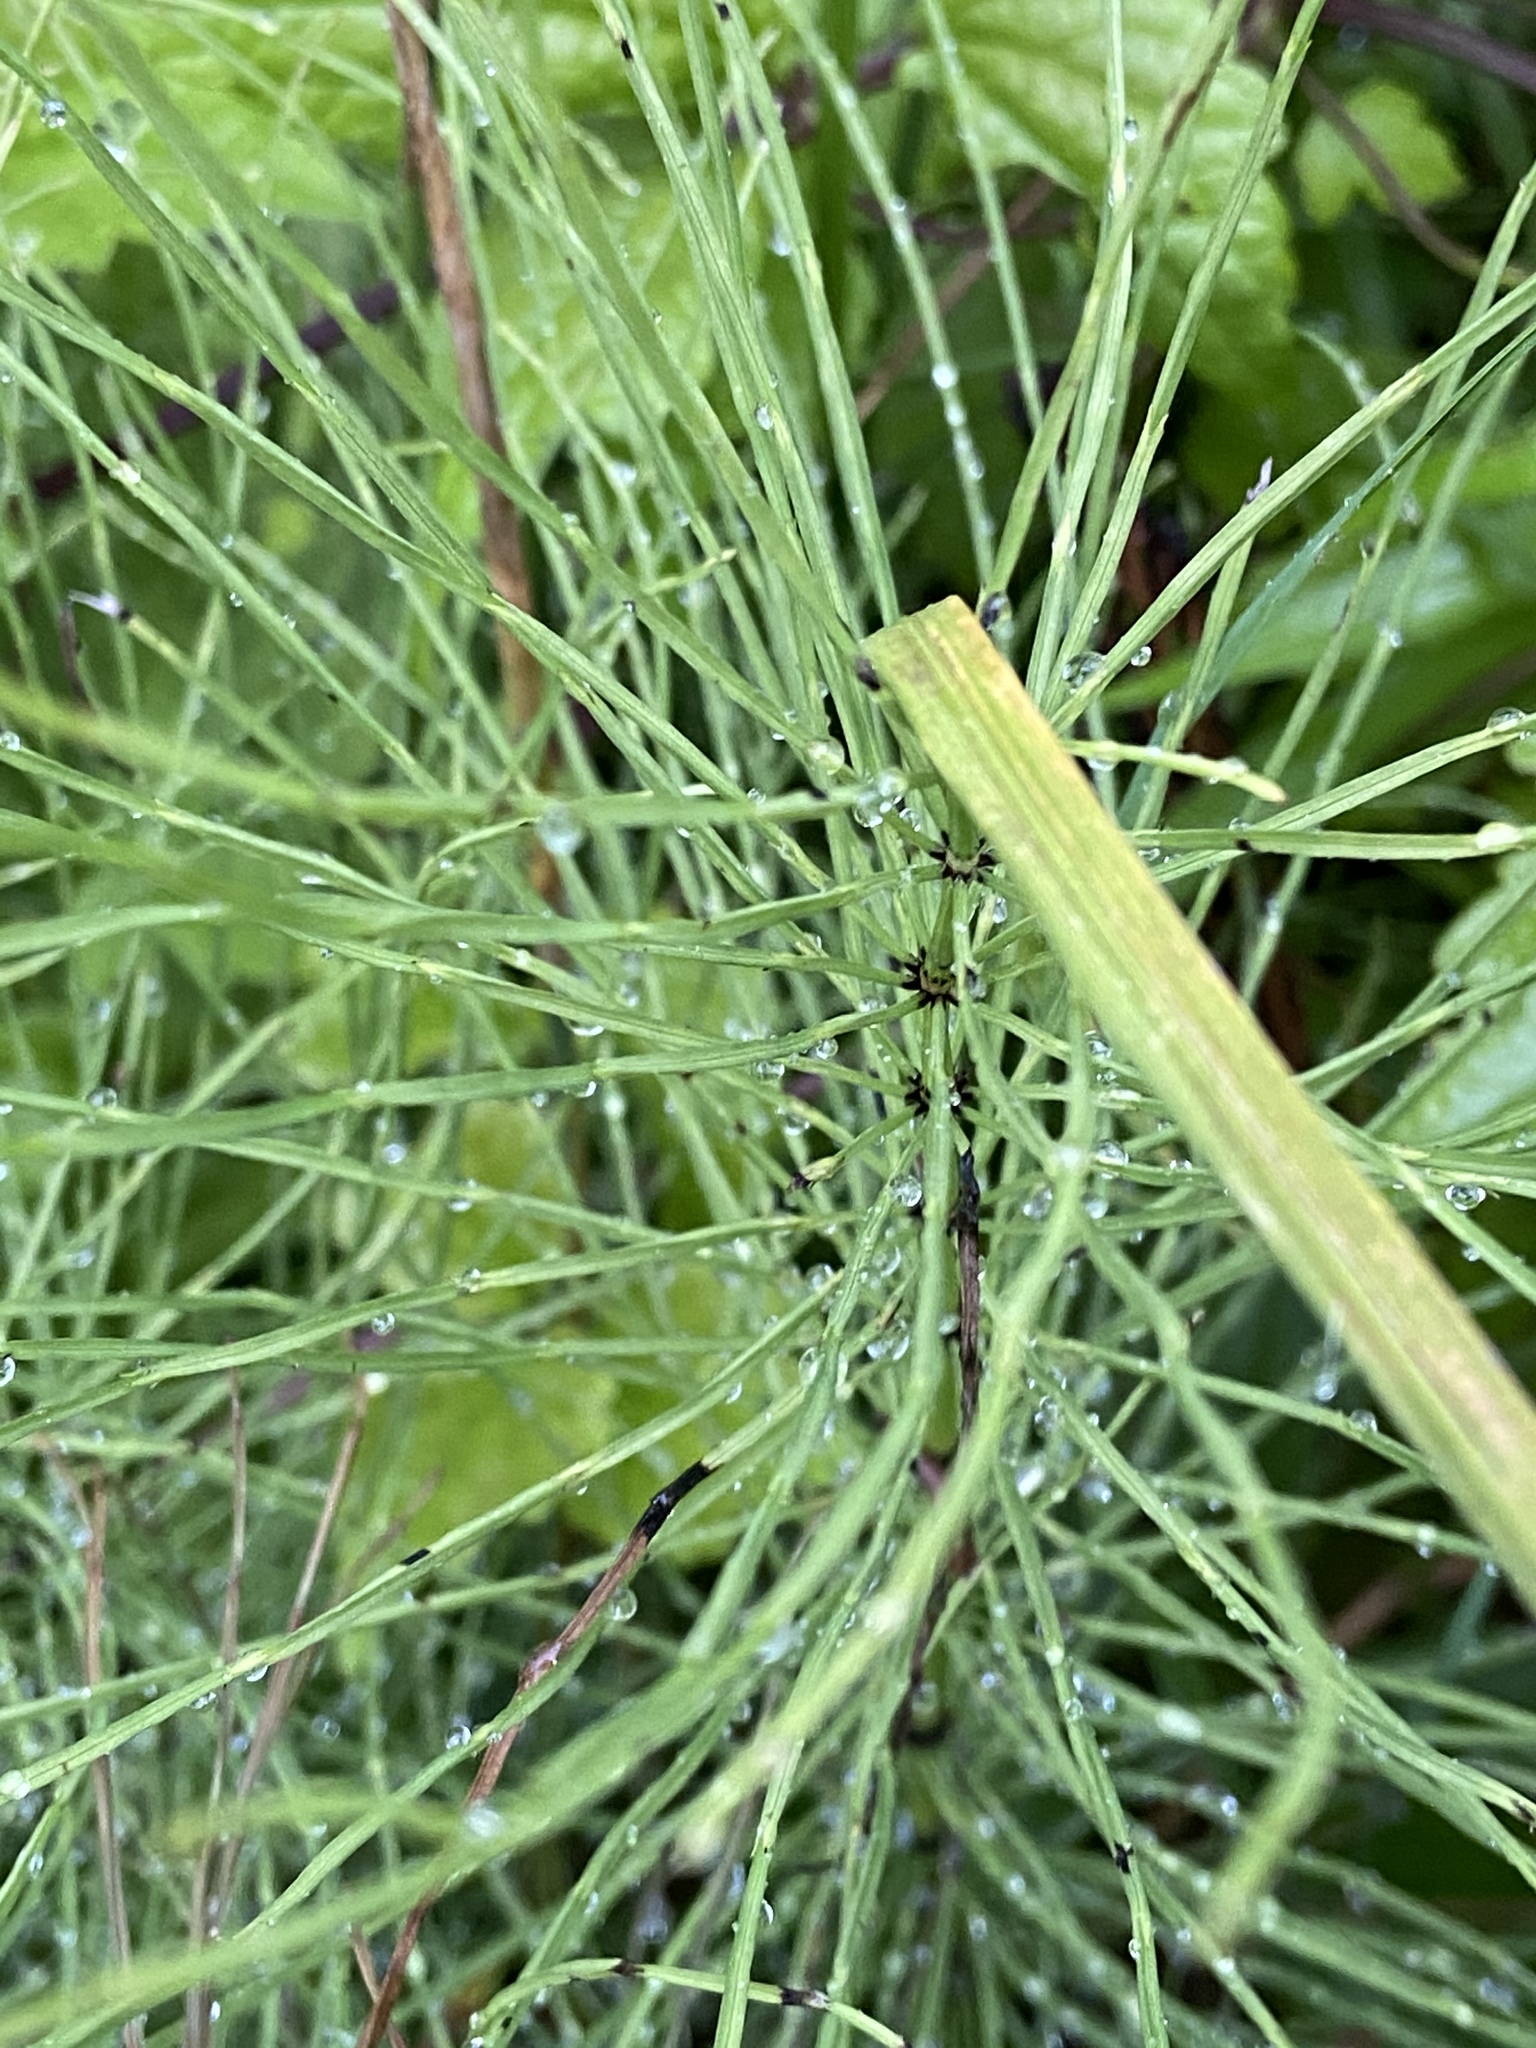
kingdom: Plantae
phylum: Tracheophyta
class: Polypodiopsida
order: Equisetales
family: Equisetaceae
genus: Equisetum
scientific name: Equisetum arvense
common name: Field horsetail
